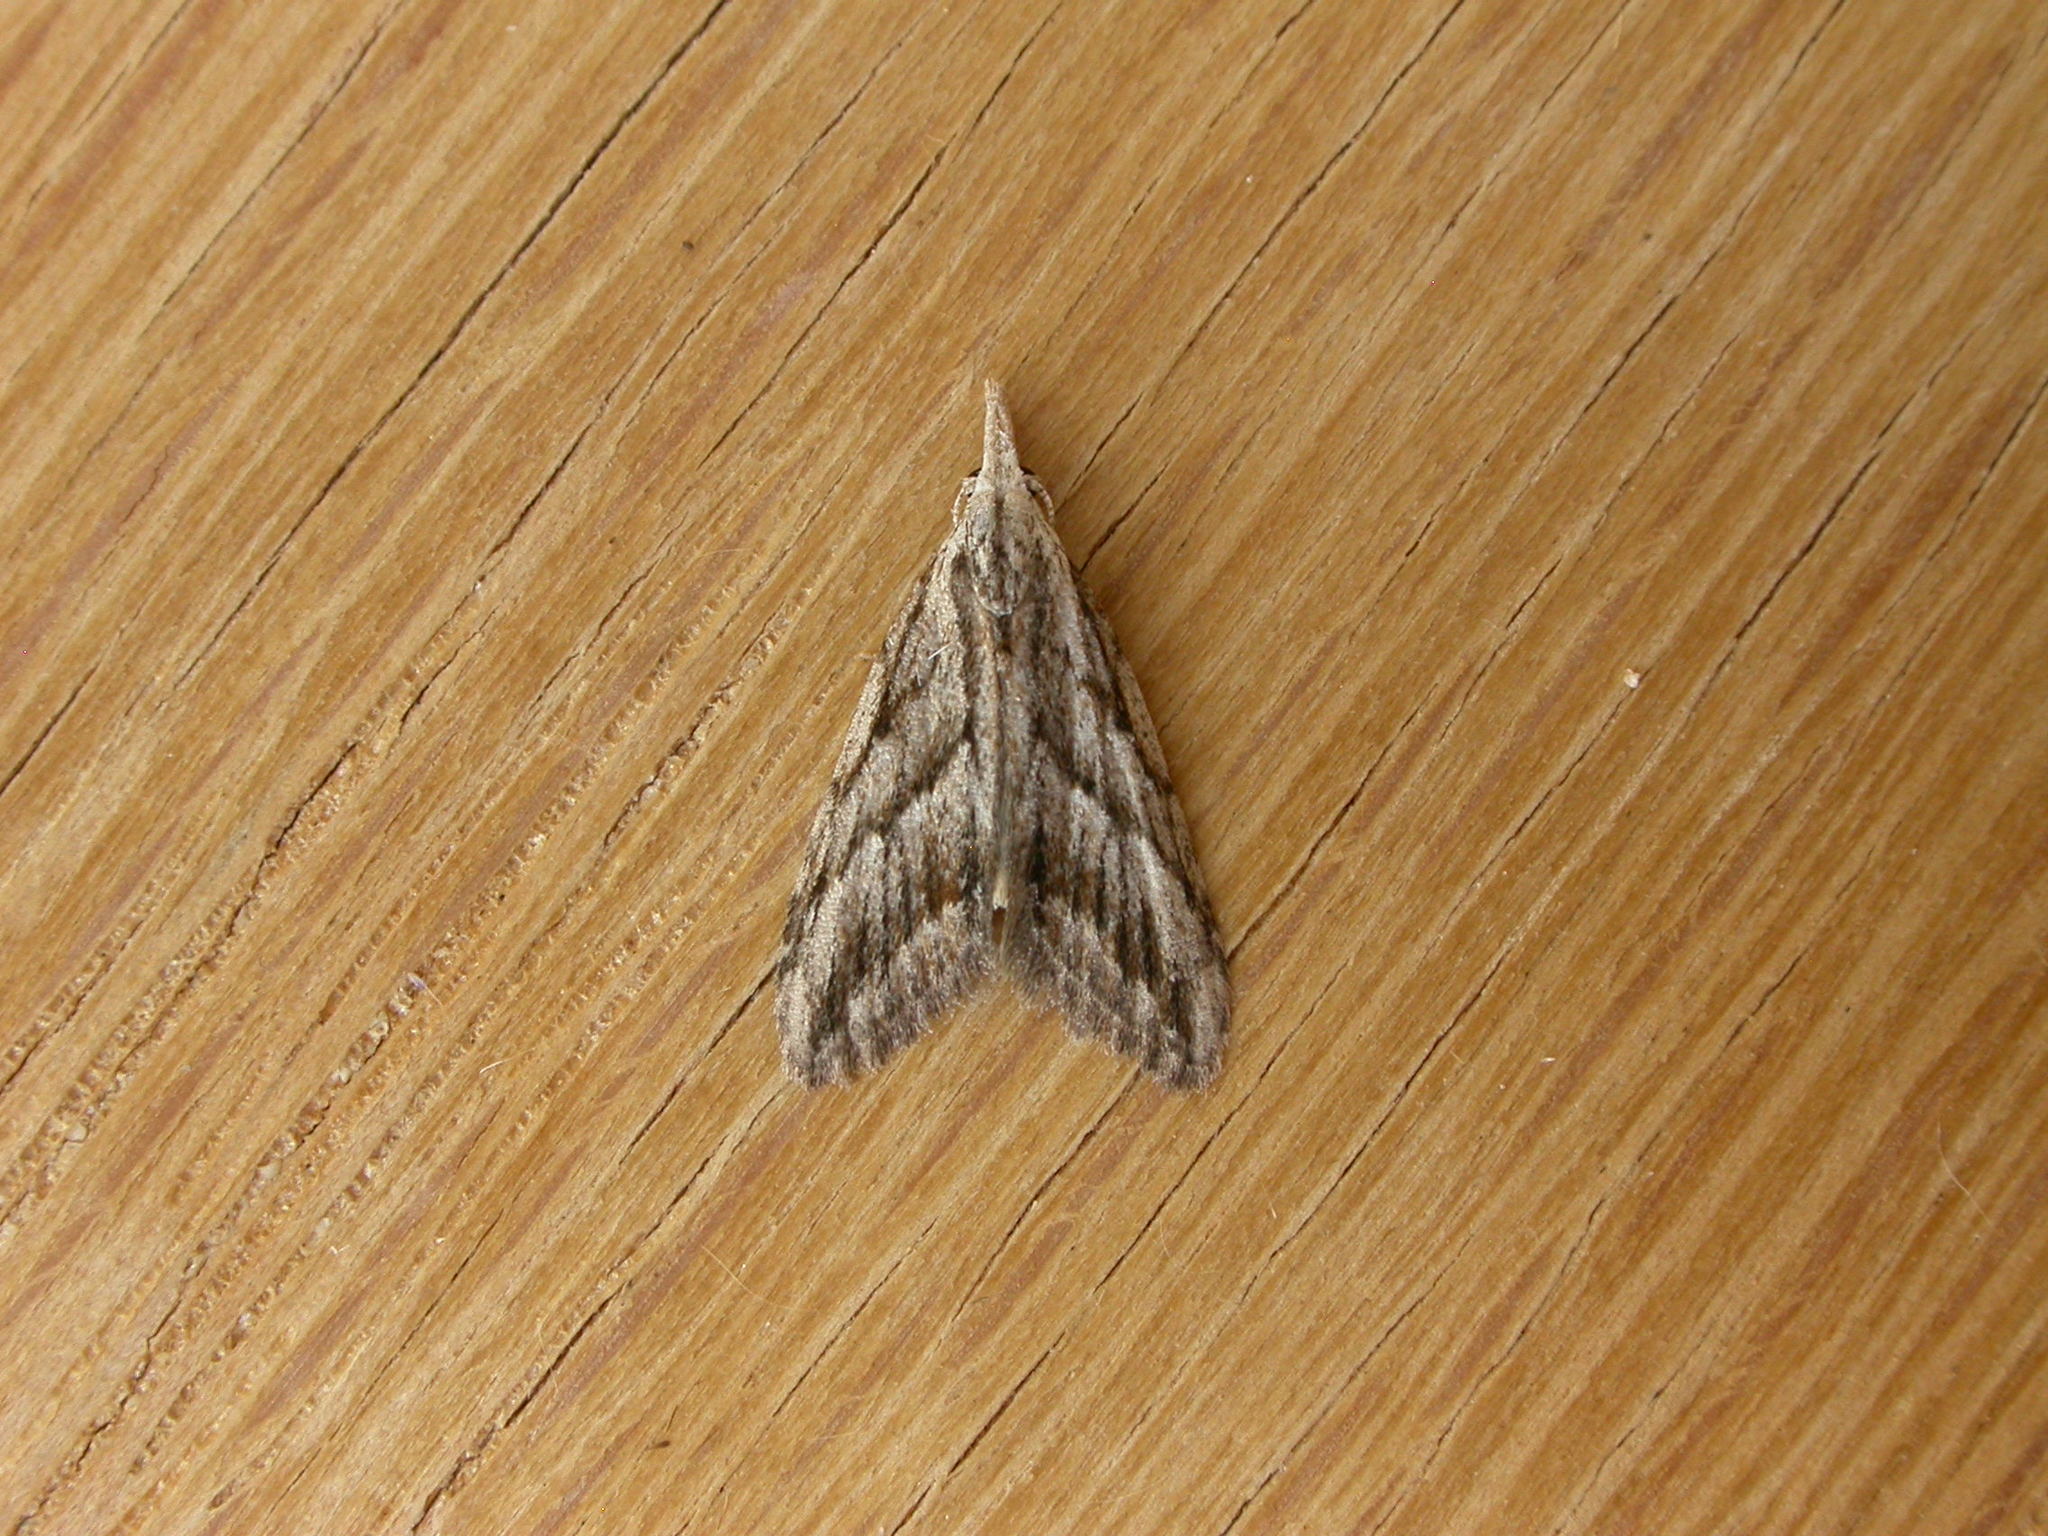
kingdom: Animalia
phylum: Arthropoda
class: Insecta
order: Lepidoptera
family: Nolidae
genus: Nola
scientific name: Nola phaeogramma
